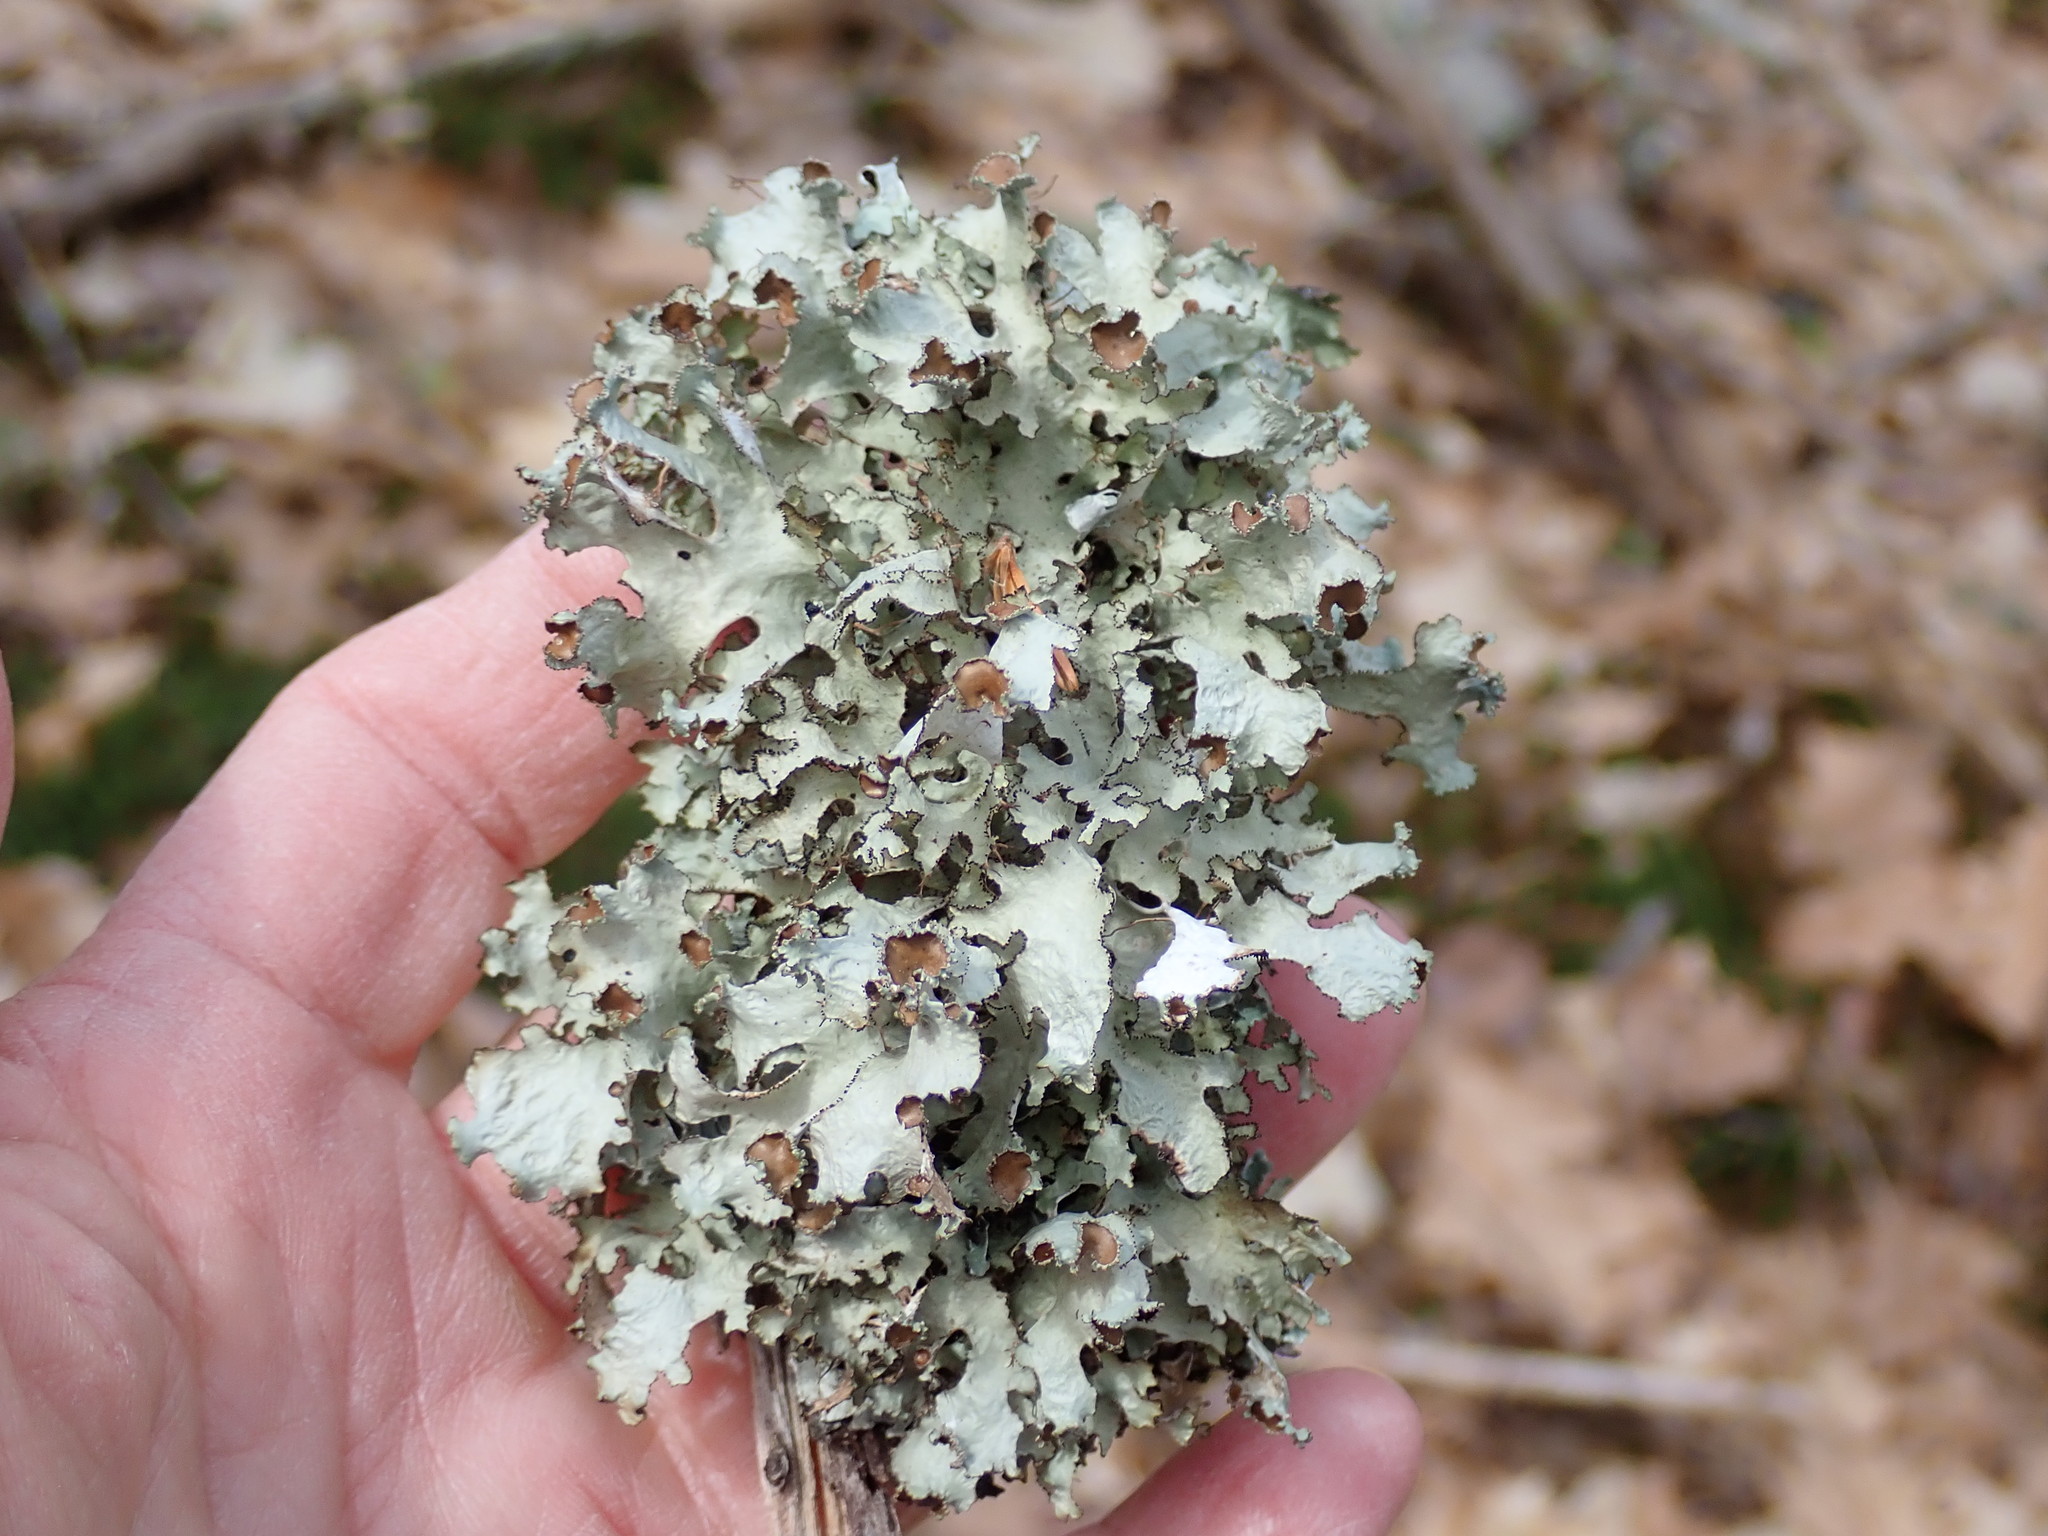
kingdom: Fungi
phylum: Ascomycota
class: Lecanoromycetes
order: Lecanorales
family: Parmeliaceae
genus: Platismatia
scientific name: Platismatia tuckermanii
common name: Crumpled rag lichen
